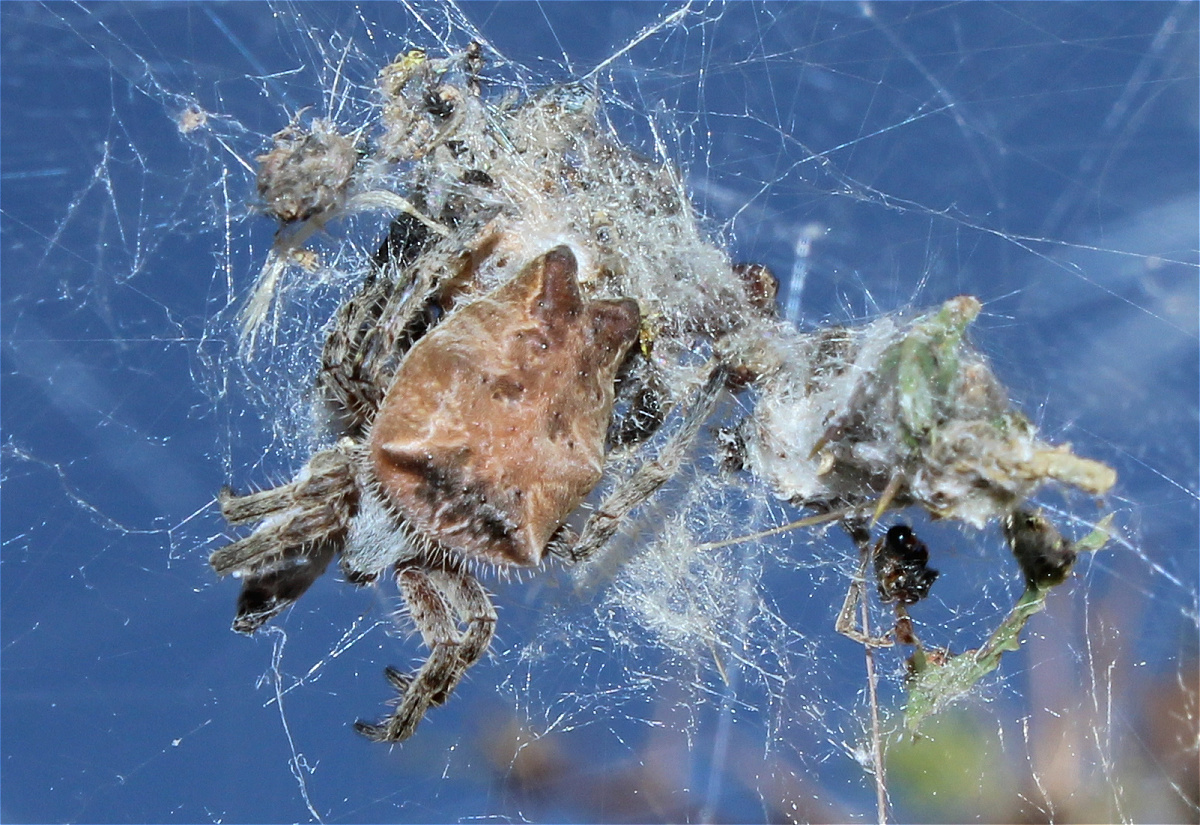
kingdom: Animalia
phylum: Arthropoda
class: Arachnida
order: Araneae
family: Araneidae
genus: Cyrtophora
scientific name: Cyrtophora citricola
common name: Orb weavers
